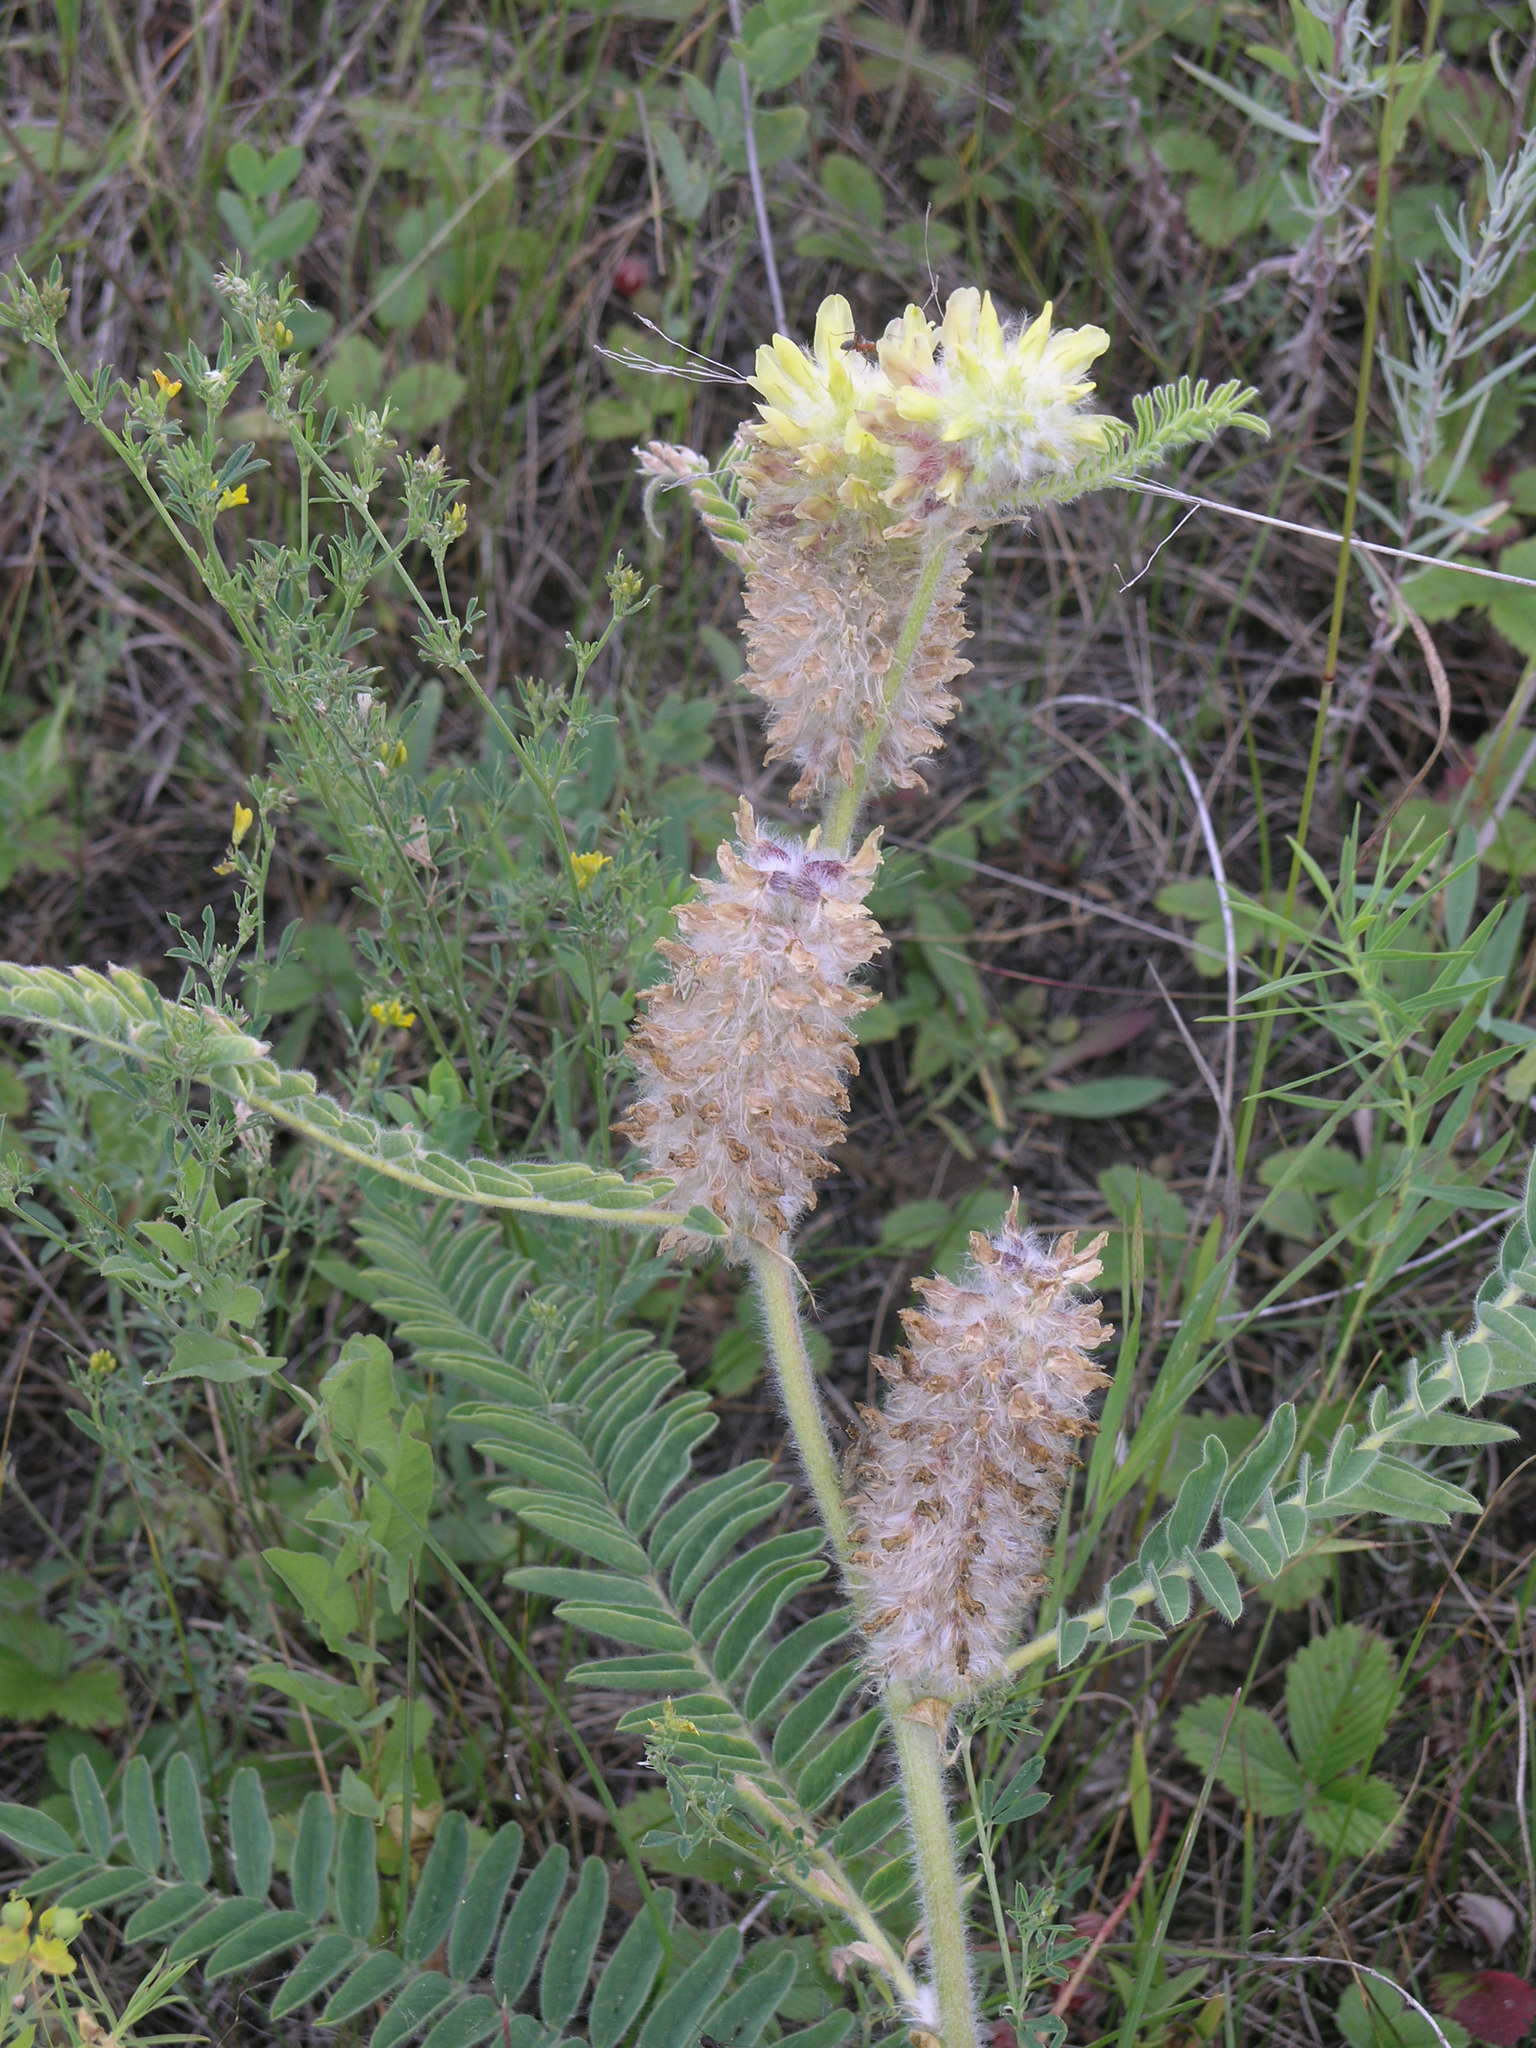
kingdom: Plantae
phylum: Tracheophyta
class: Magnoliopsida
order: Fabales
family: Fabaceae
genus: Astragalus
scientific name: Astragalus alopecurus
